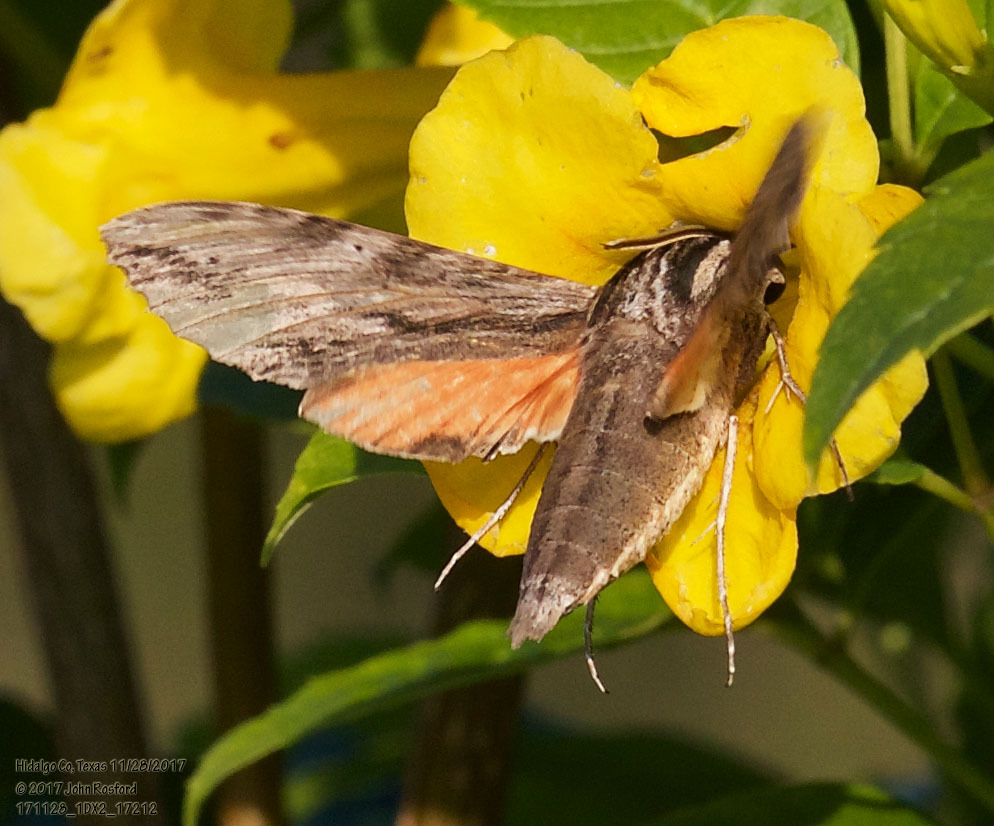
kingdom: Animalia
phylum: Arthropoda
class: Insecta
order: Lepidoptera
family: Sphingidae
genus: Erinnyis
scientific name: Erinnyis obscura
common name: Obscure sphinx
